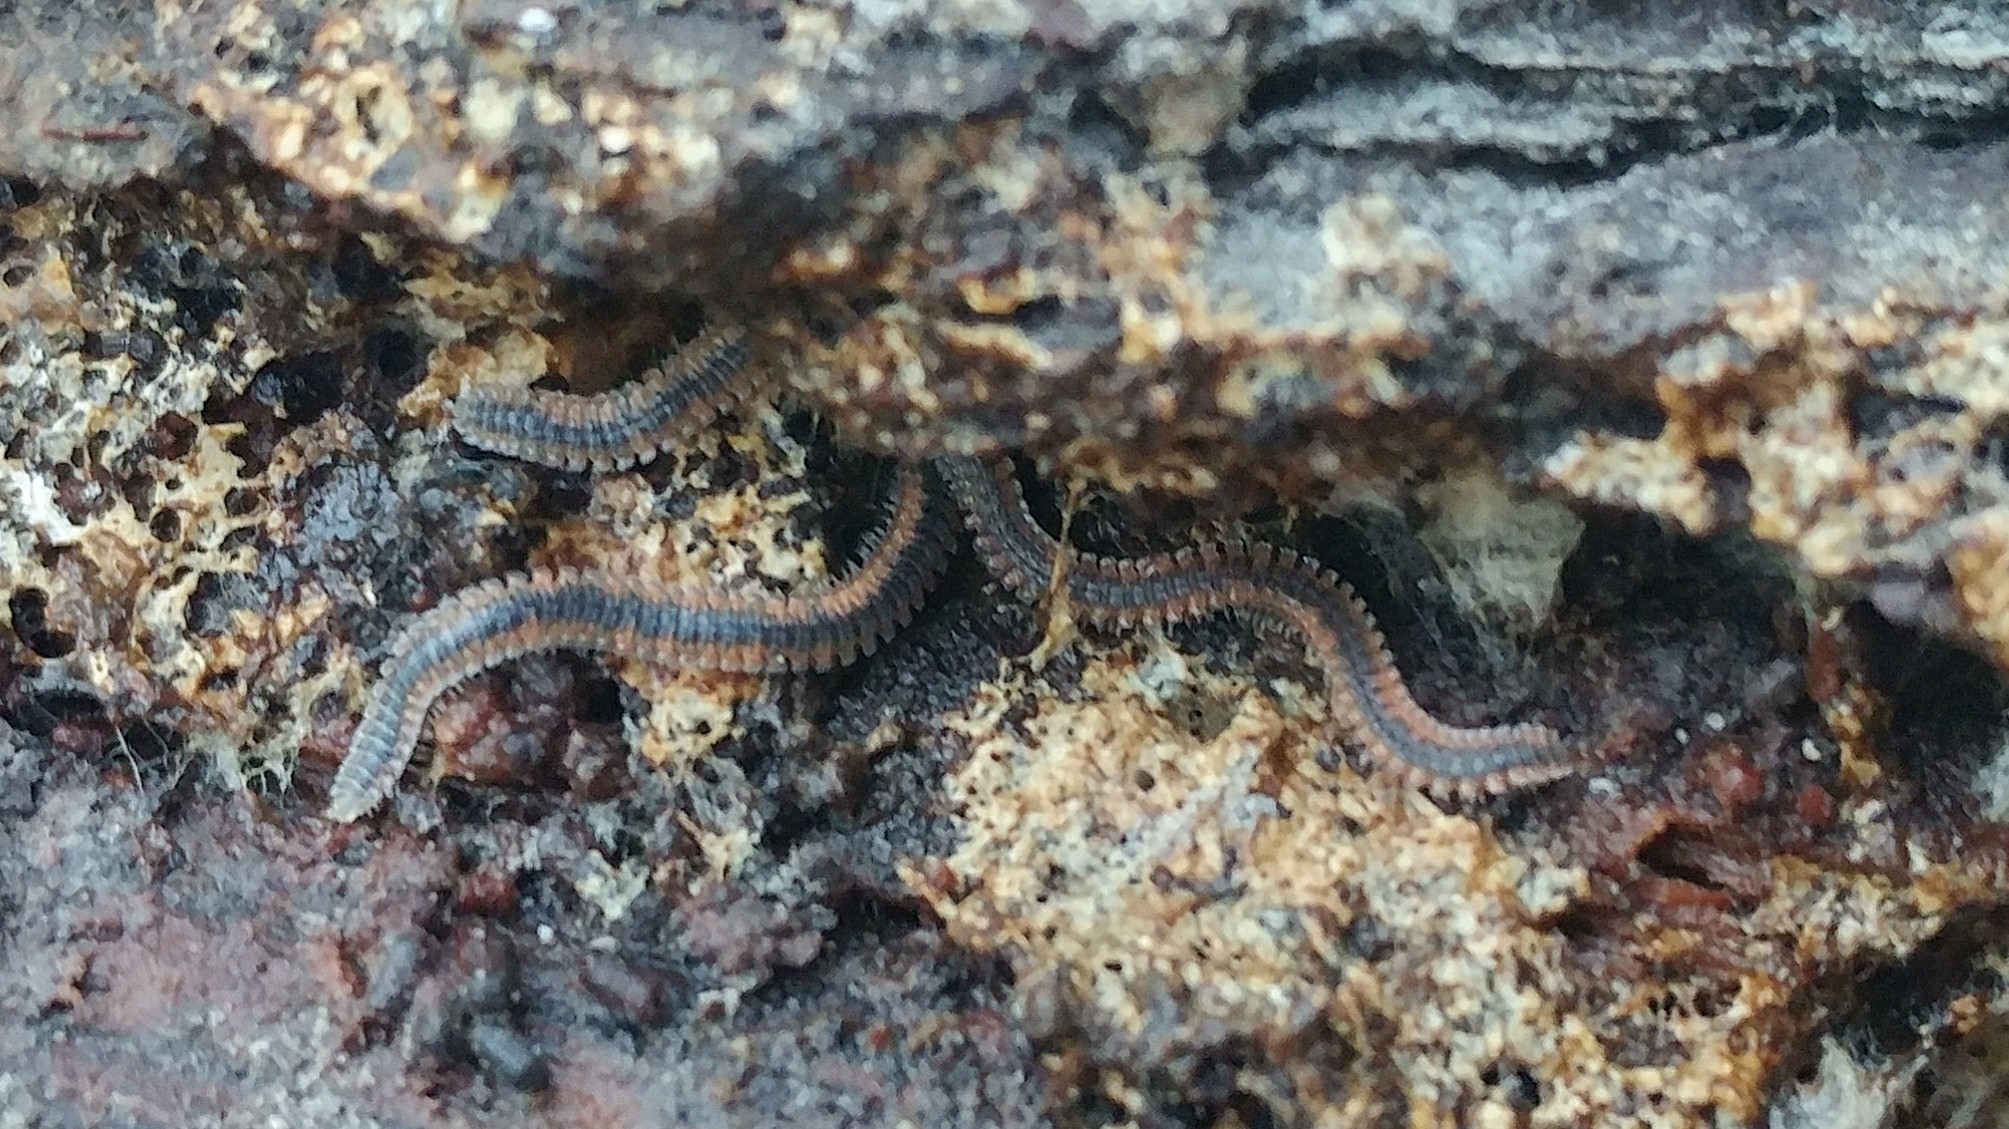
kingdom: Animalia
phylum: Arthropoda
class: Diplopoda
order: Platydesmida
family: Andrognathidae
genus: Gosodesmus
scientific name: Gosodesmus claremontus
